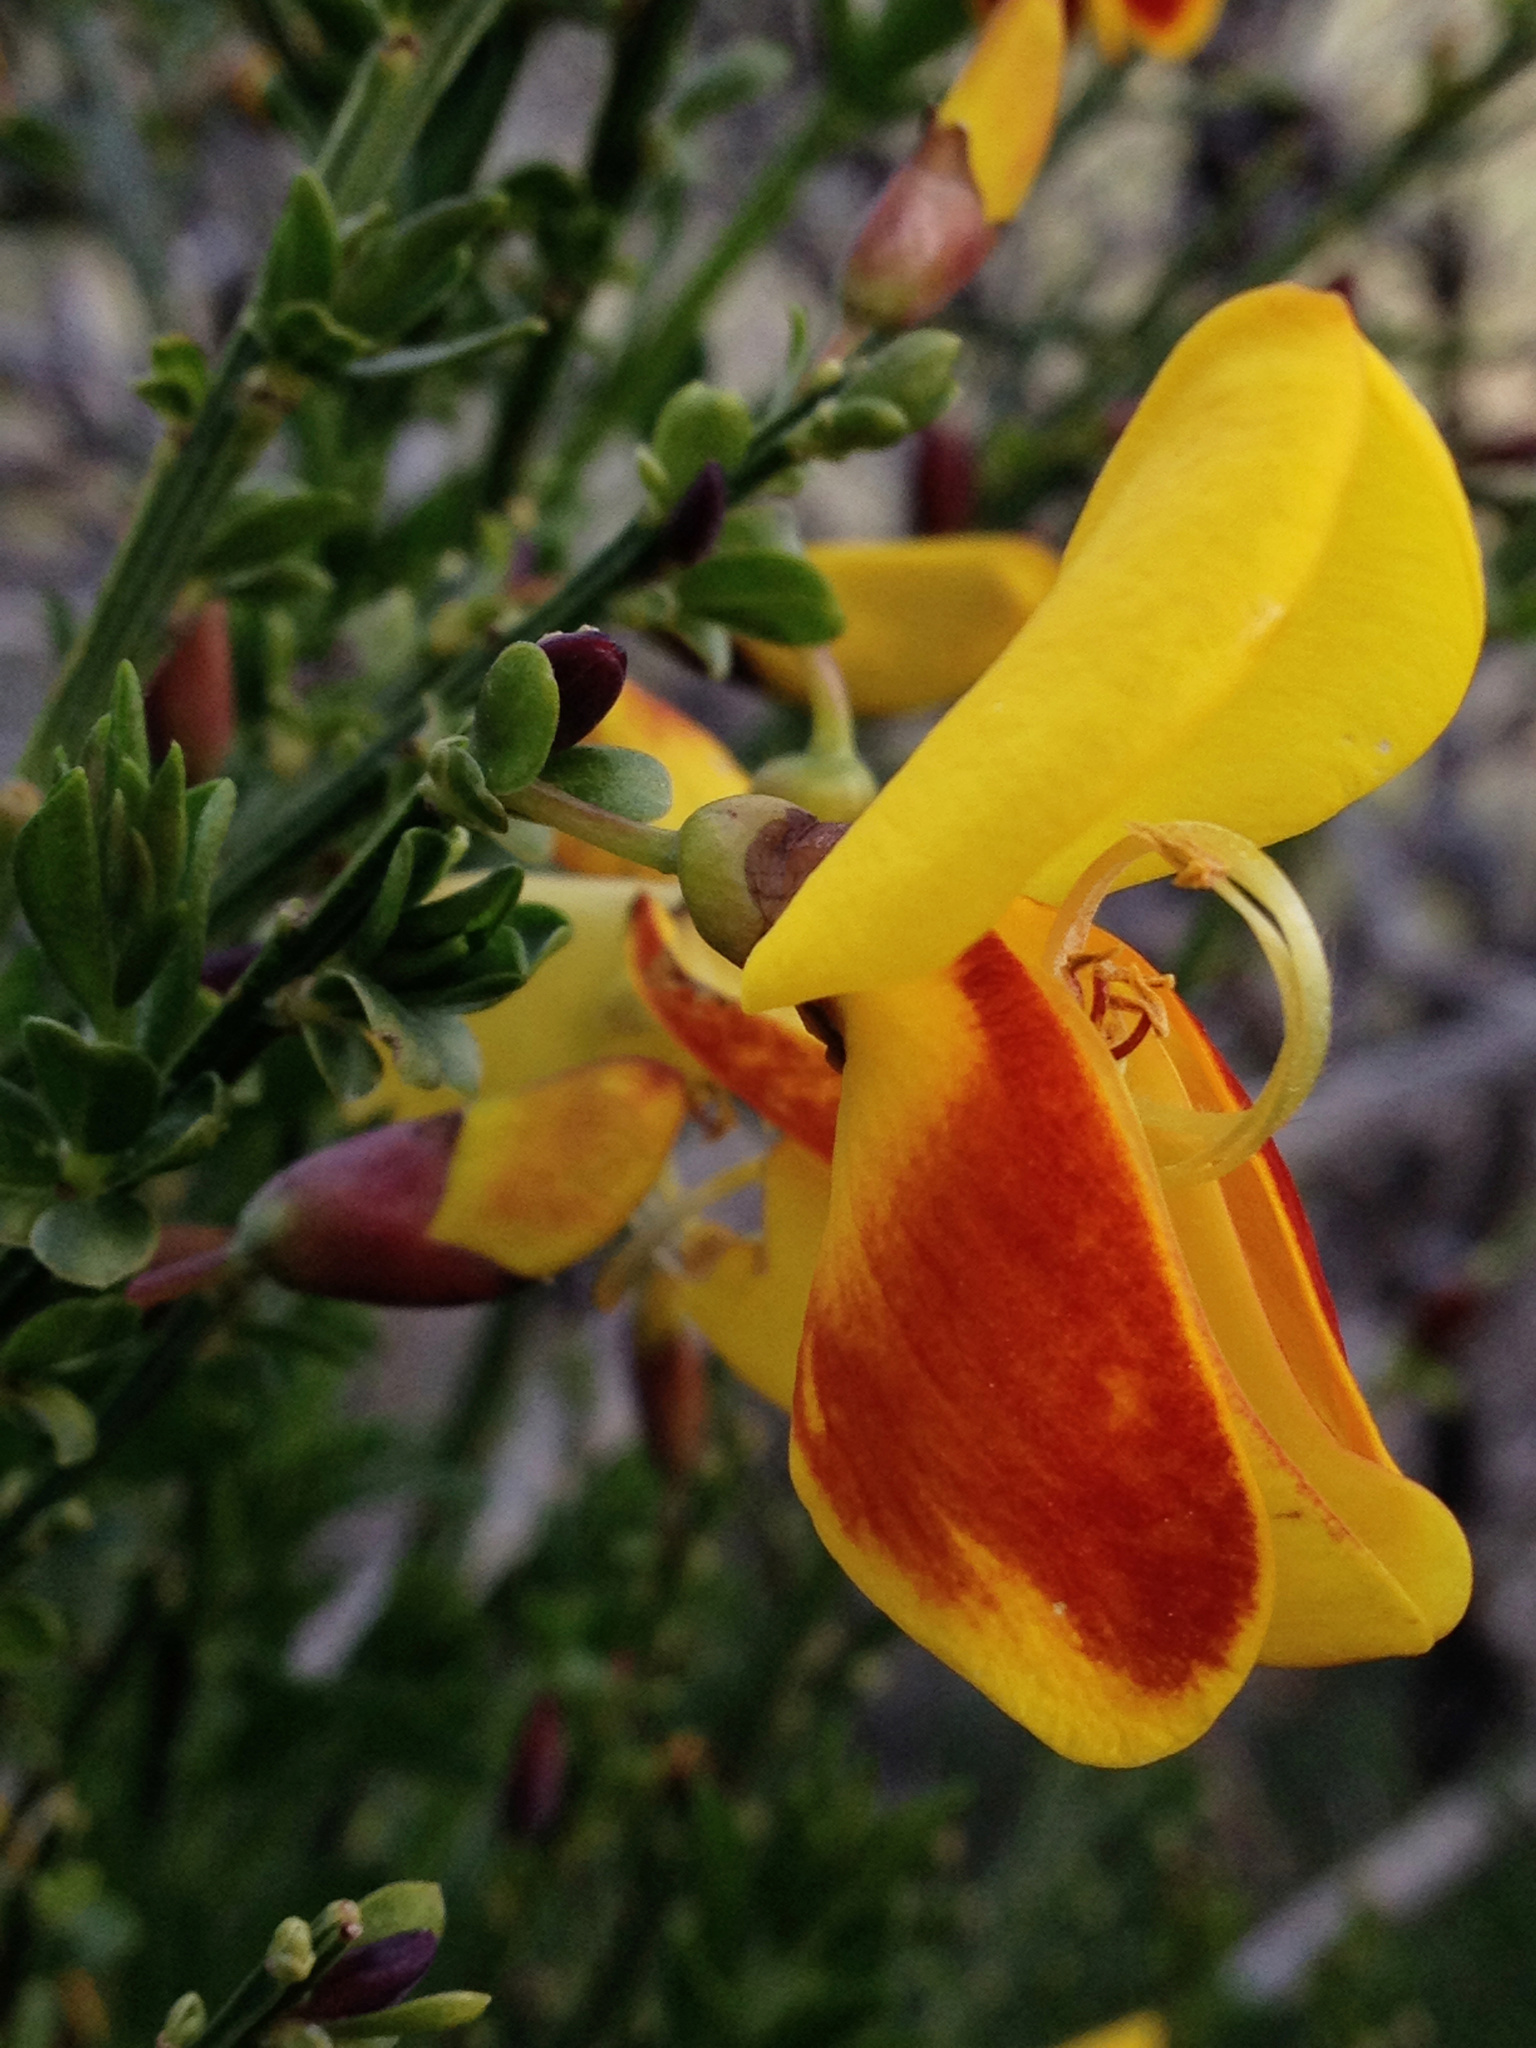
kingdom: Plantae
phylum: Tracheophyta
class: Magnoliopsida
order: Fabales
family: Fabaceae
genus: Cytisus
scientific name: Cytisus scoparius
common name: Scotch broom
